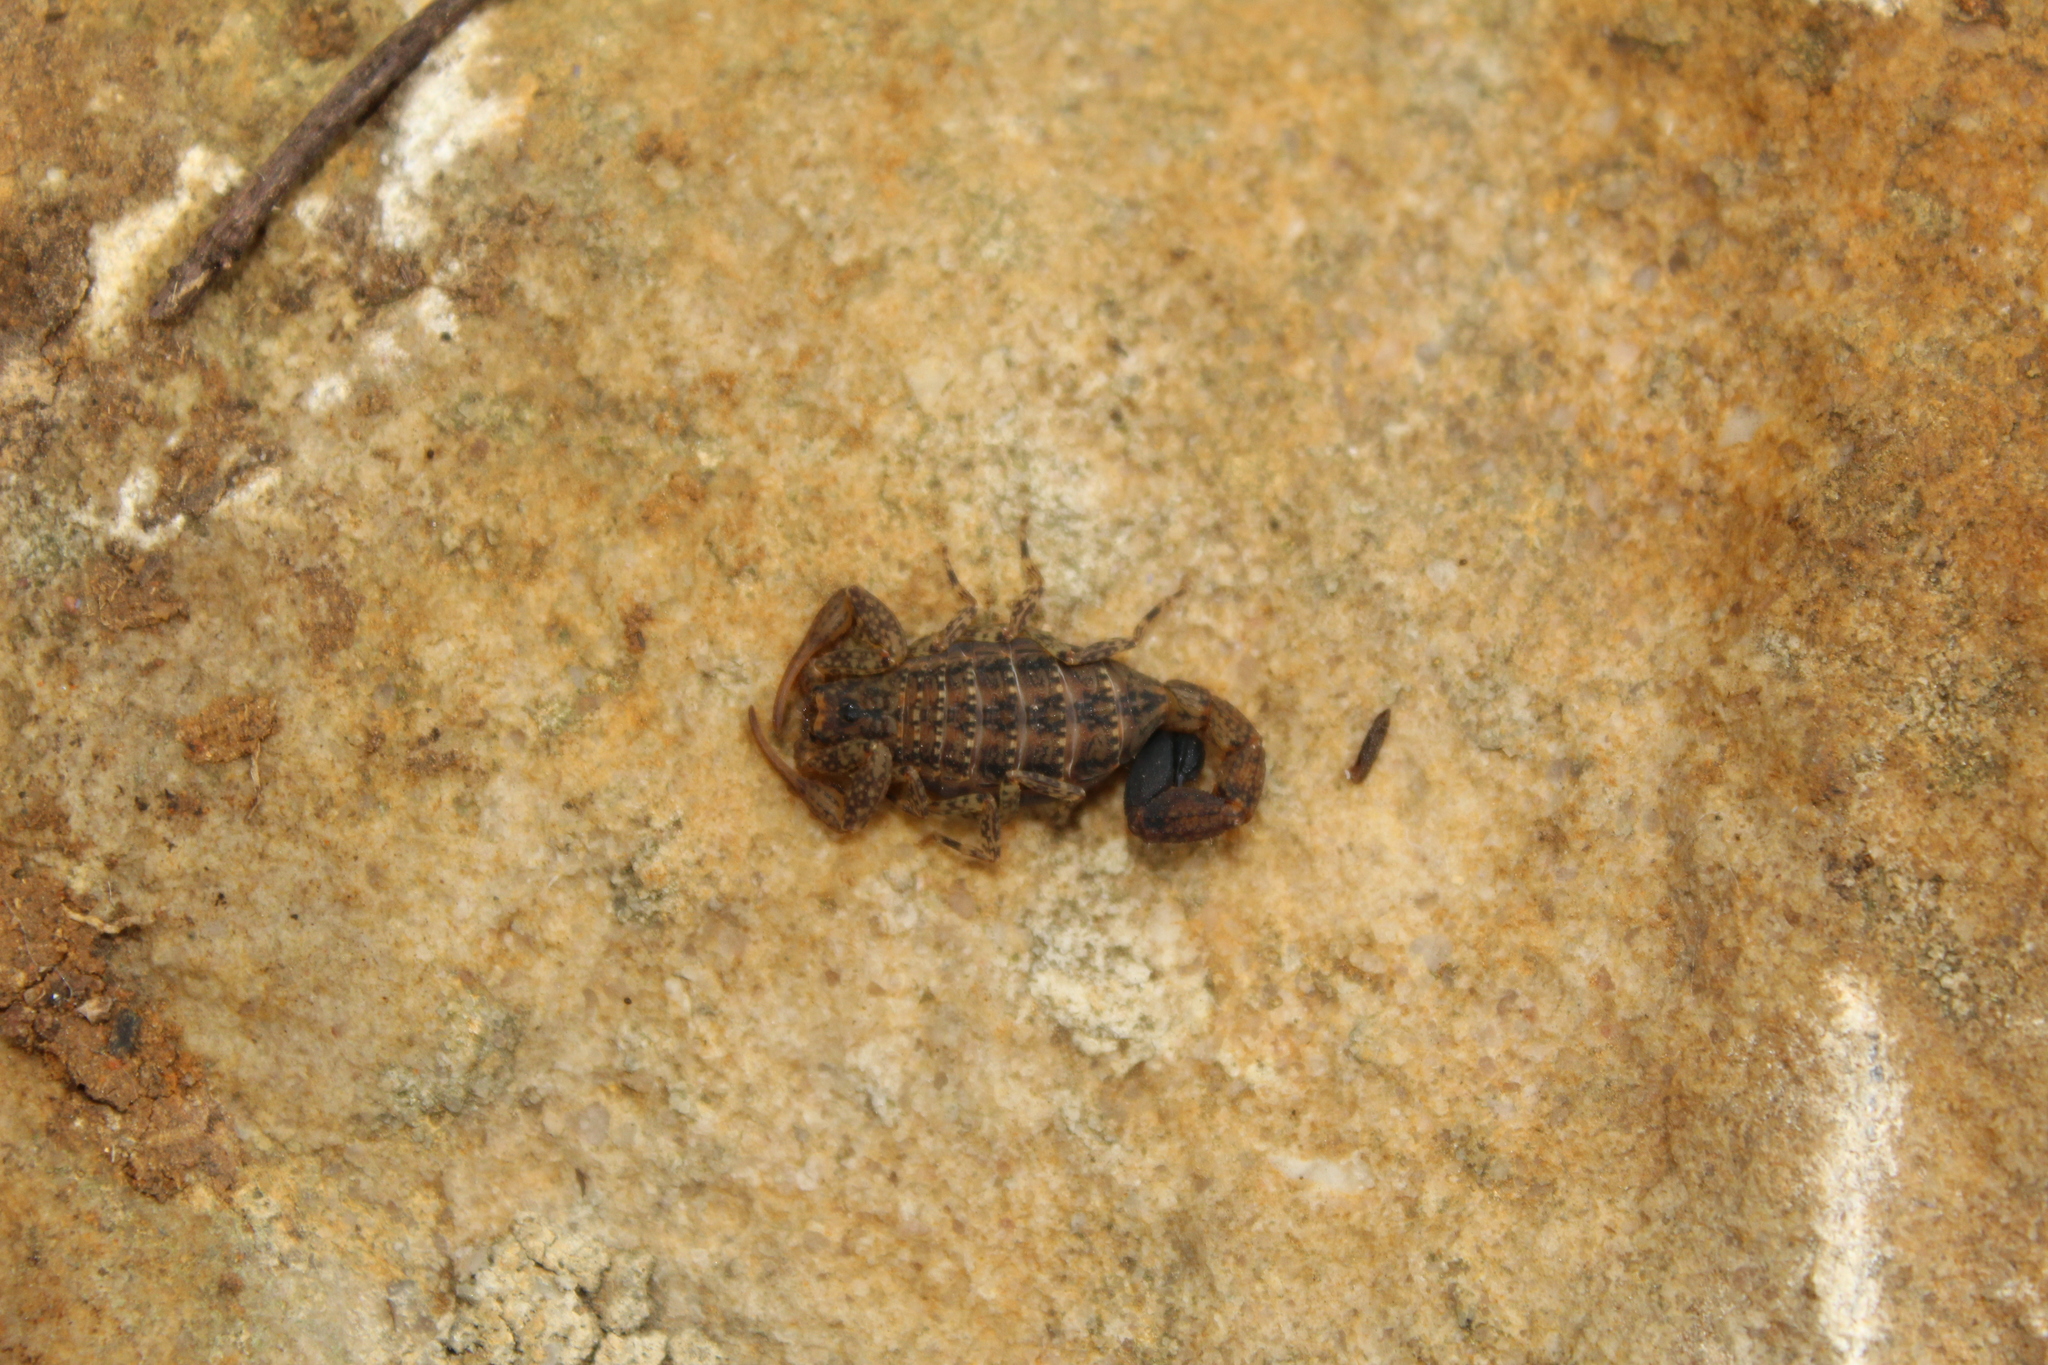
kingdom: Animalia
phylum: Arthropoda
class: Arachnida
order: Scorpiones
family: Buthidae
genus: Tityus
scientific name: Tityus columbianus
